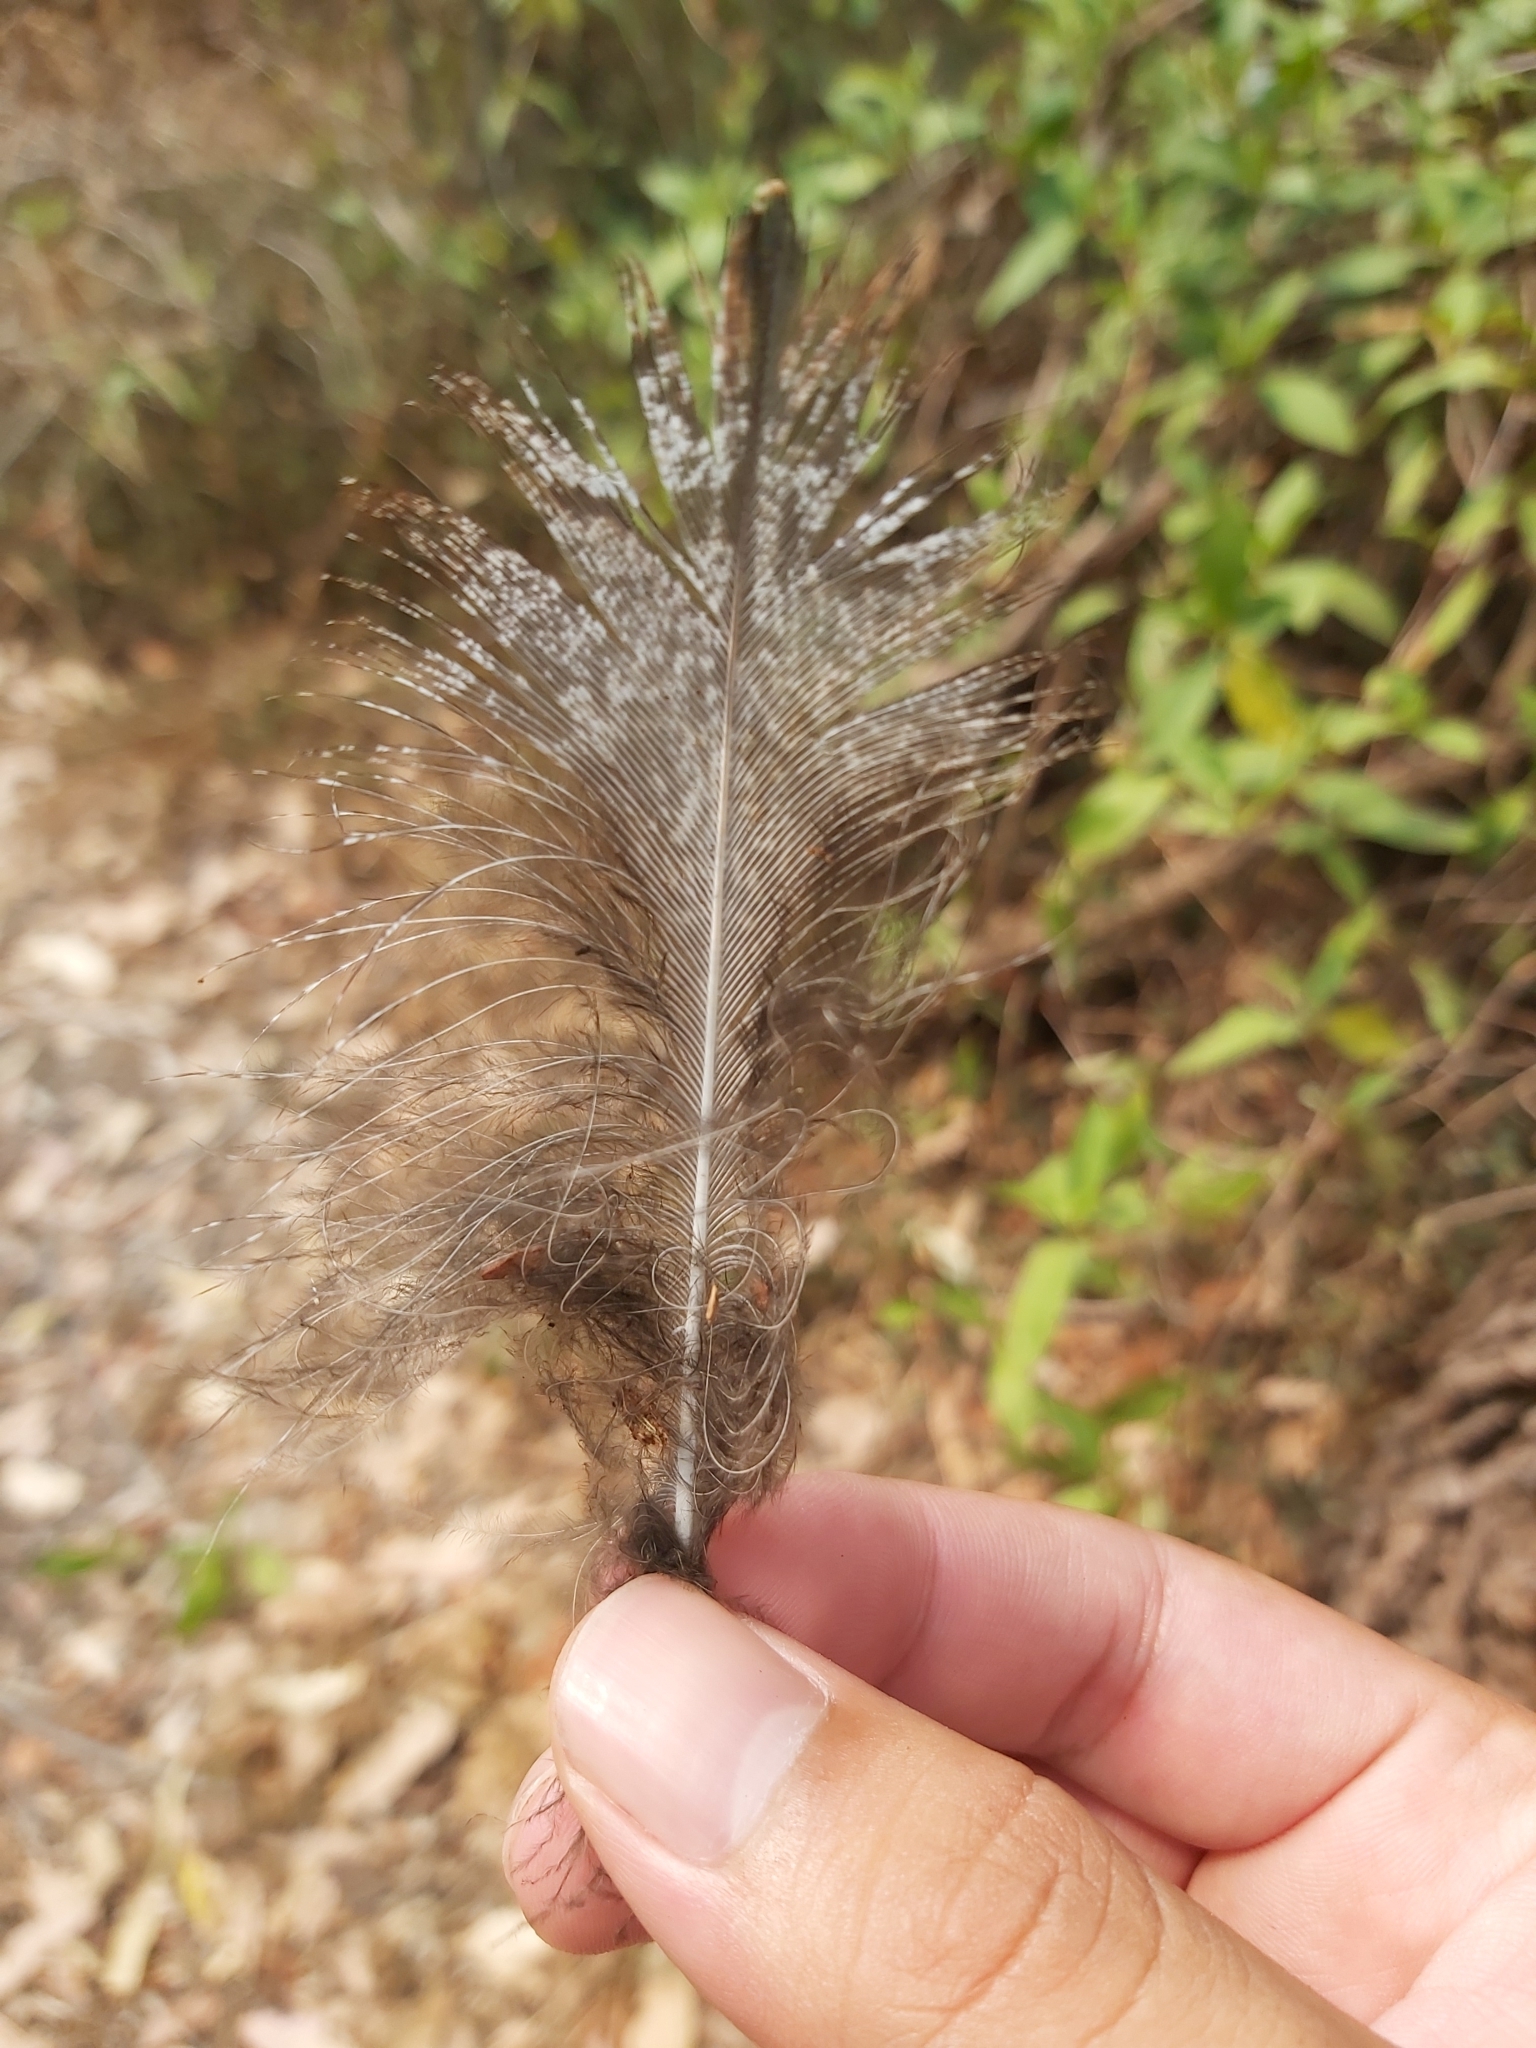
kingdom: Animalia
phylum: Chordata
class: Aves
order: Caprimulgiformes
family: Podargidae
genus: Podargus
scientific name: Podargus strigoides
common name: Tawny frogmouth
